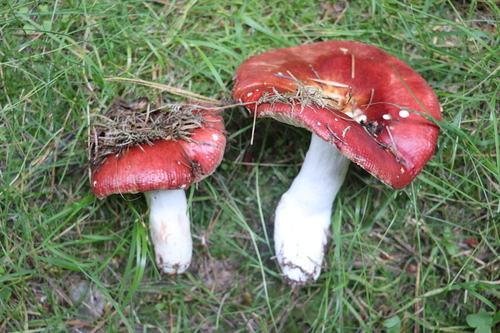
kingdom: Fungi
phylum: Basidiomycota
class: Agaricomycetes
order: Russulales
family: Russulaceae
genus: Russula
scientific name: Russula sanguinea
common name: Bloody brittlegill
